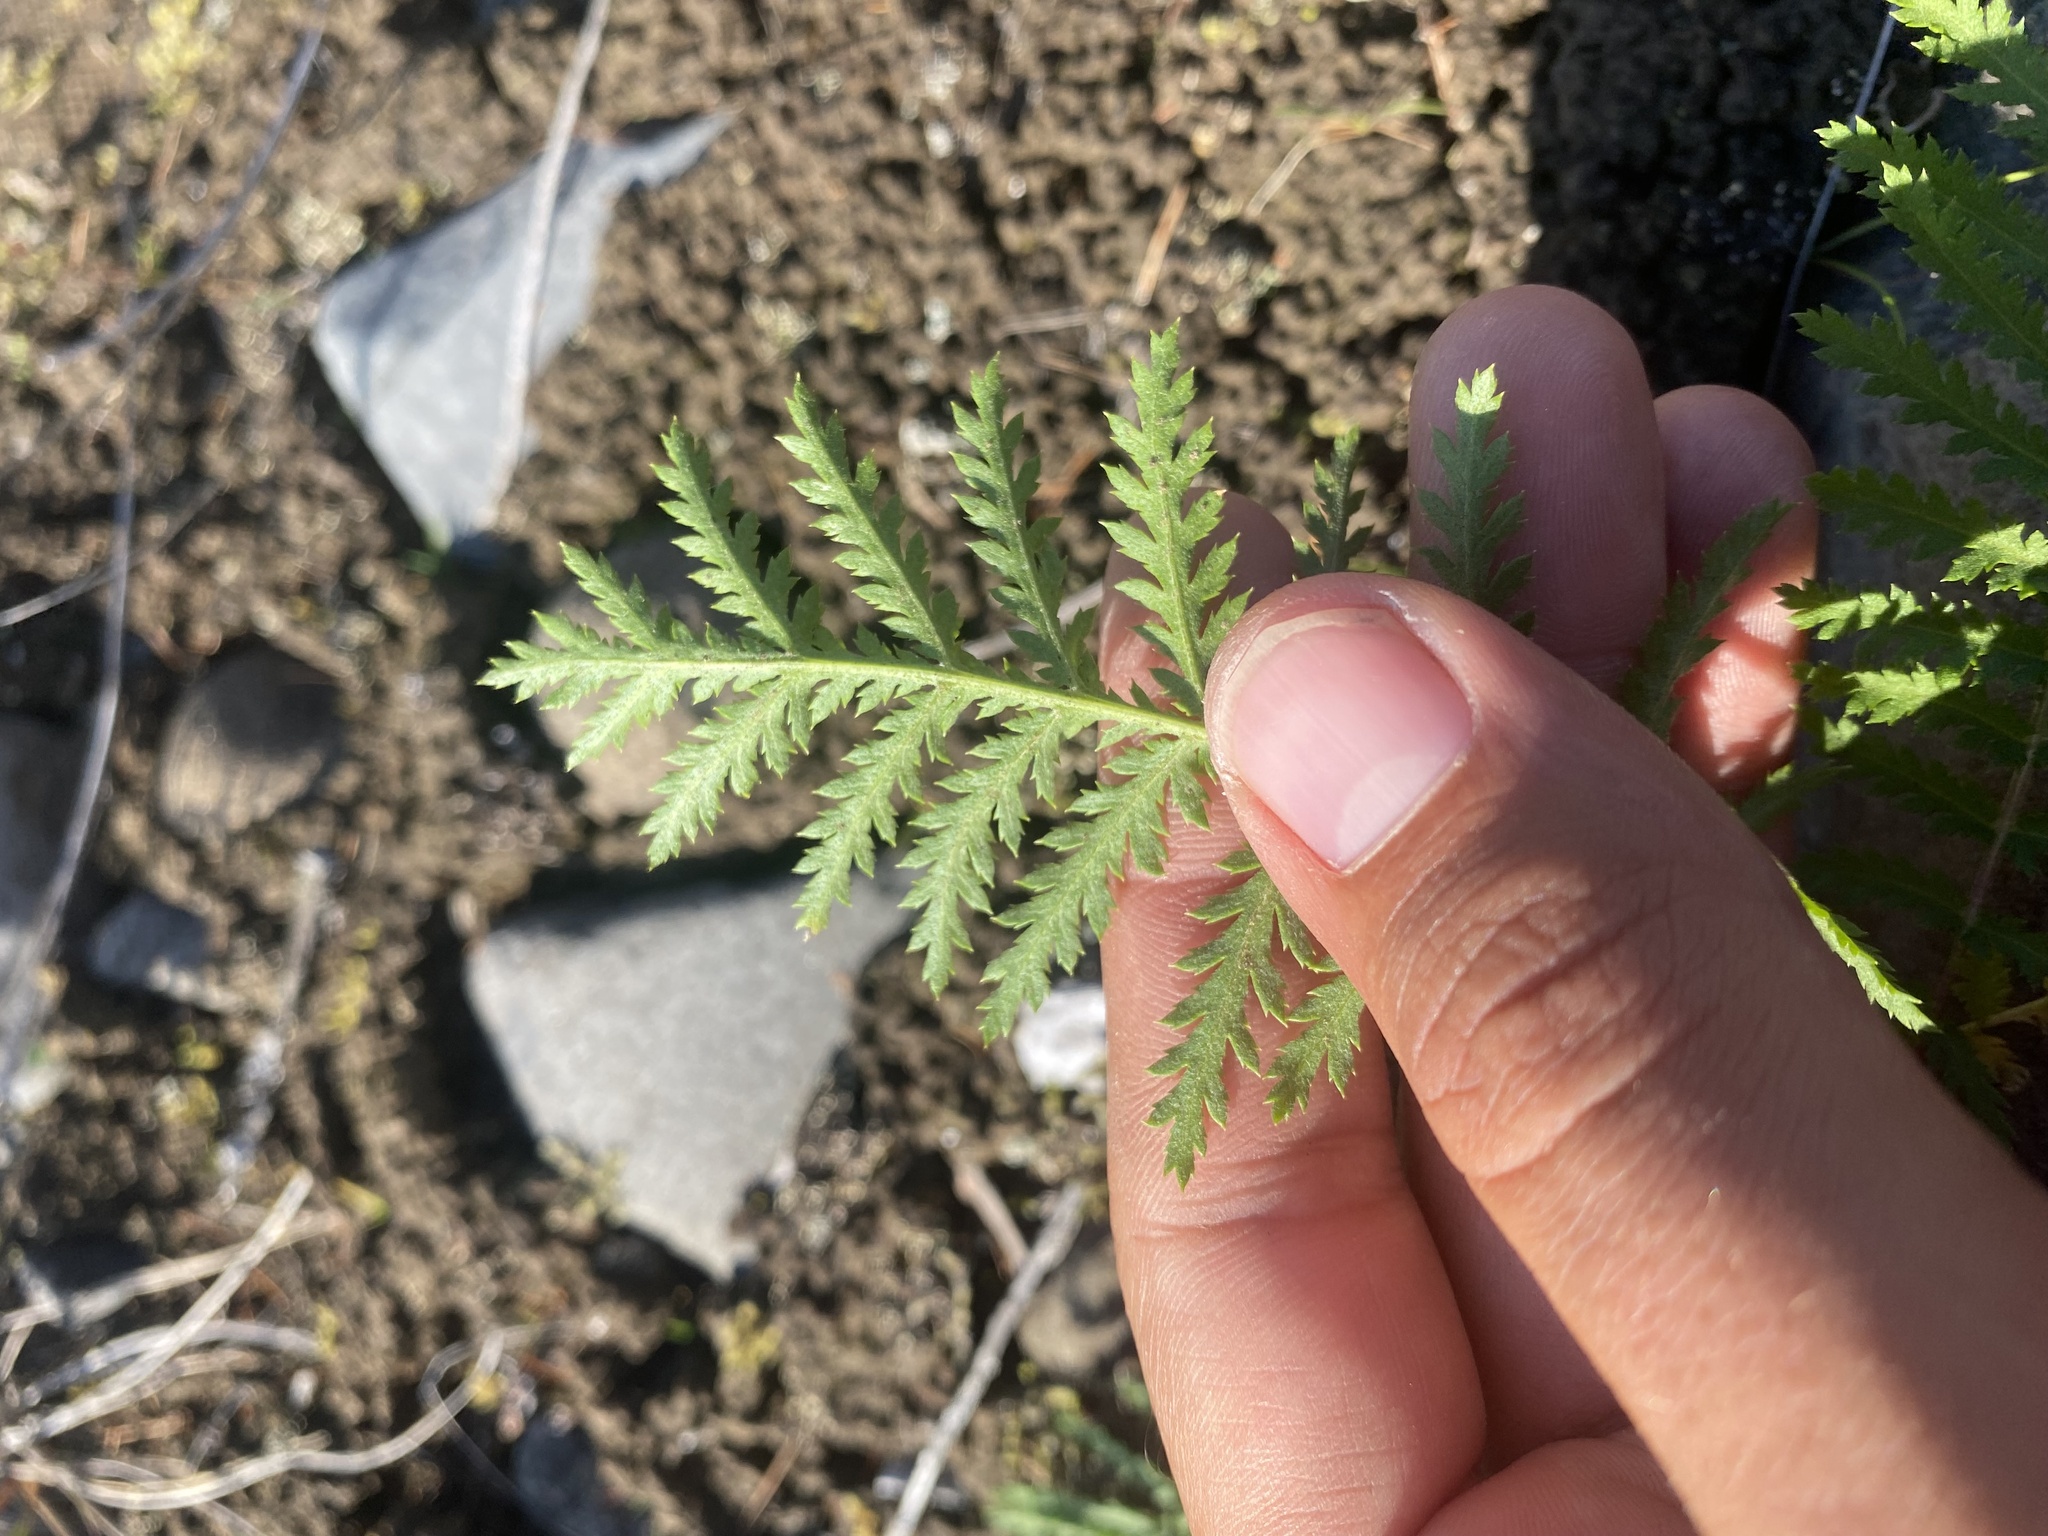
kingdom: Plantae
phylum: Tracheophyta
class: Magnoliopsida
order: Asterales
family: Asteraceae
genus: Tanacetum
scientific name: Tanacetum vulgare
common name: Common tansy
